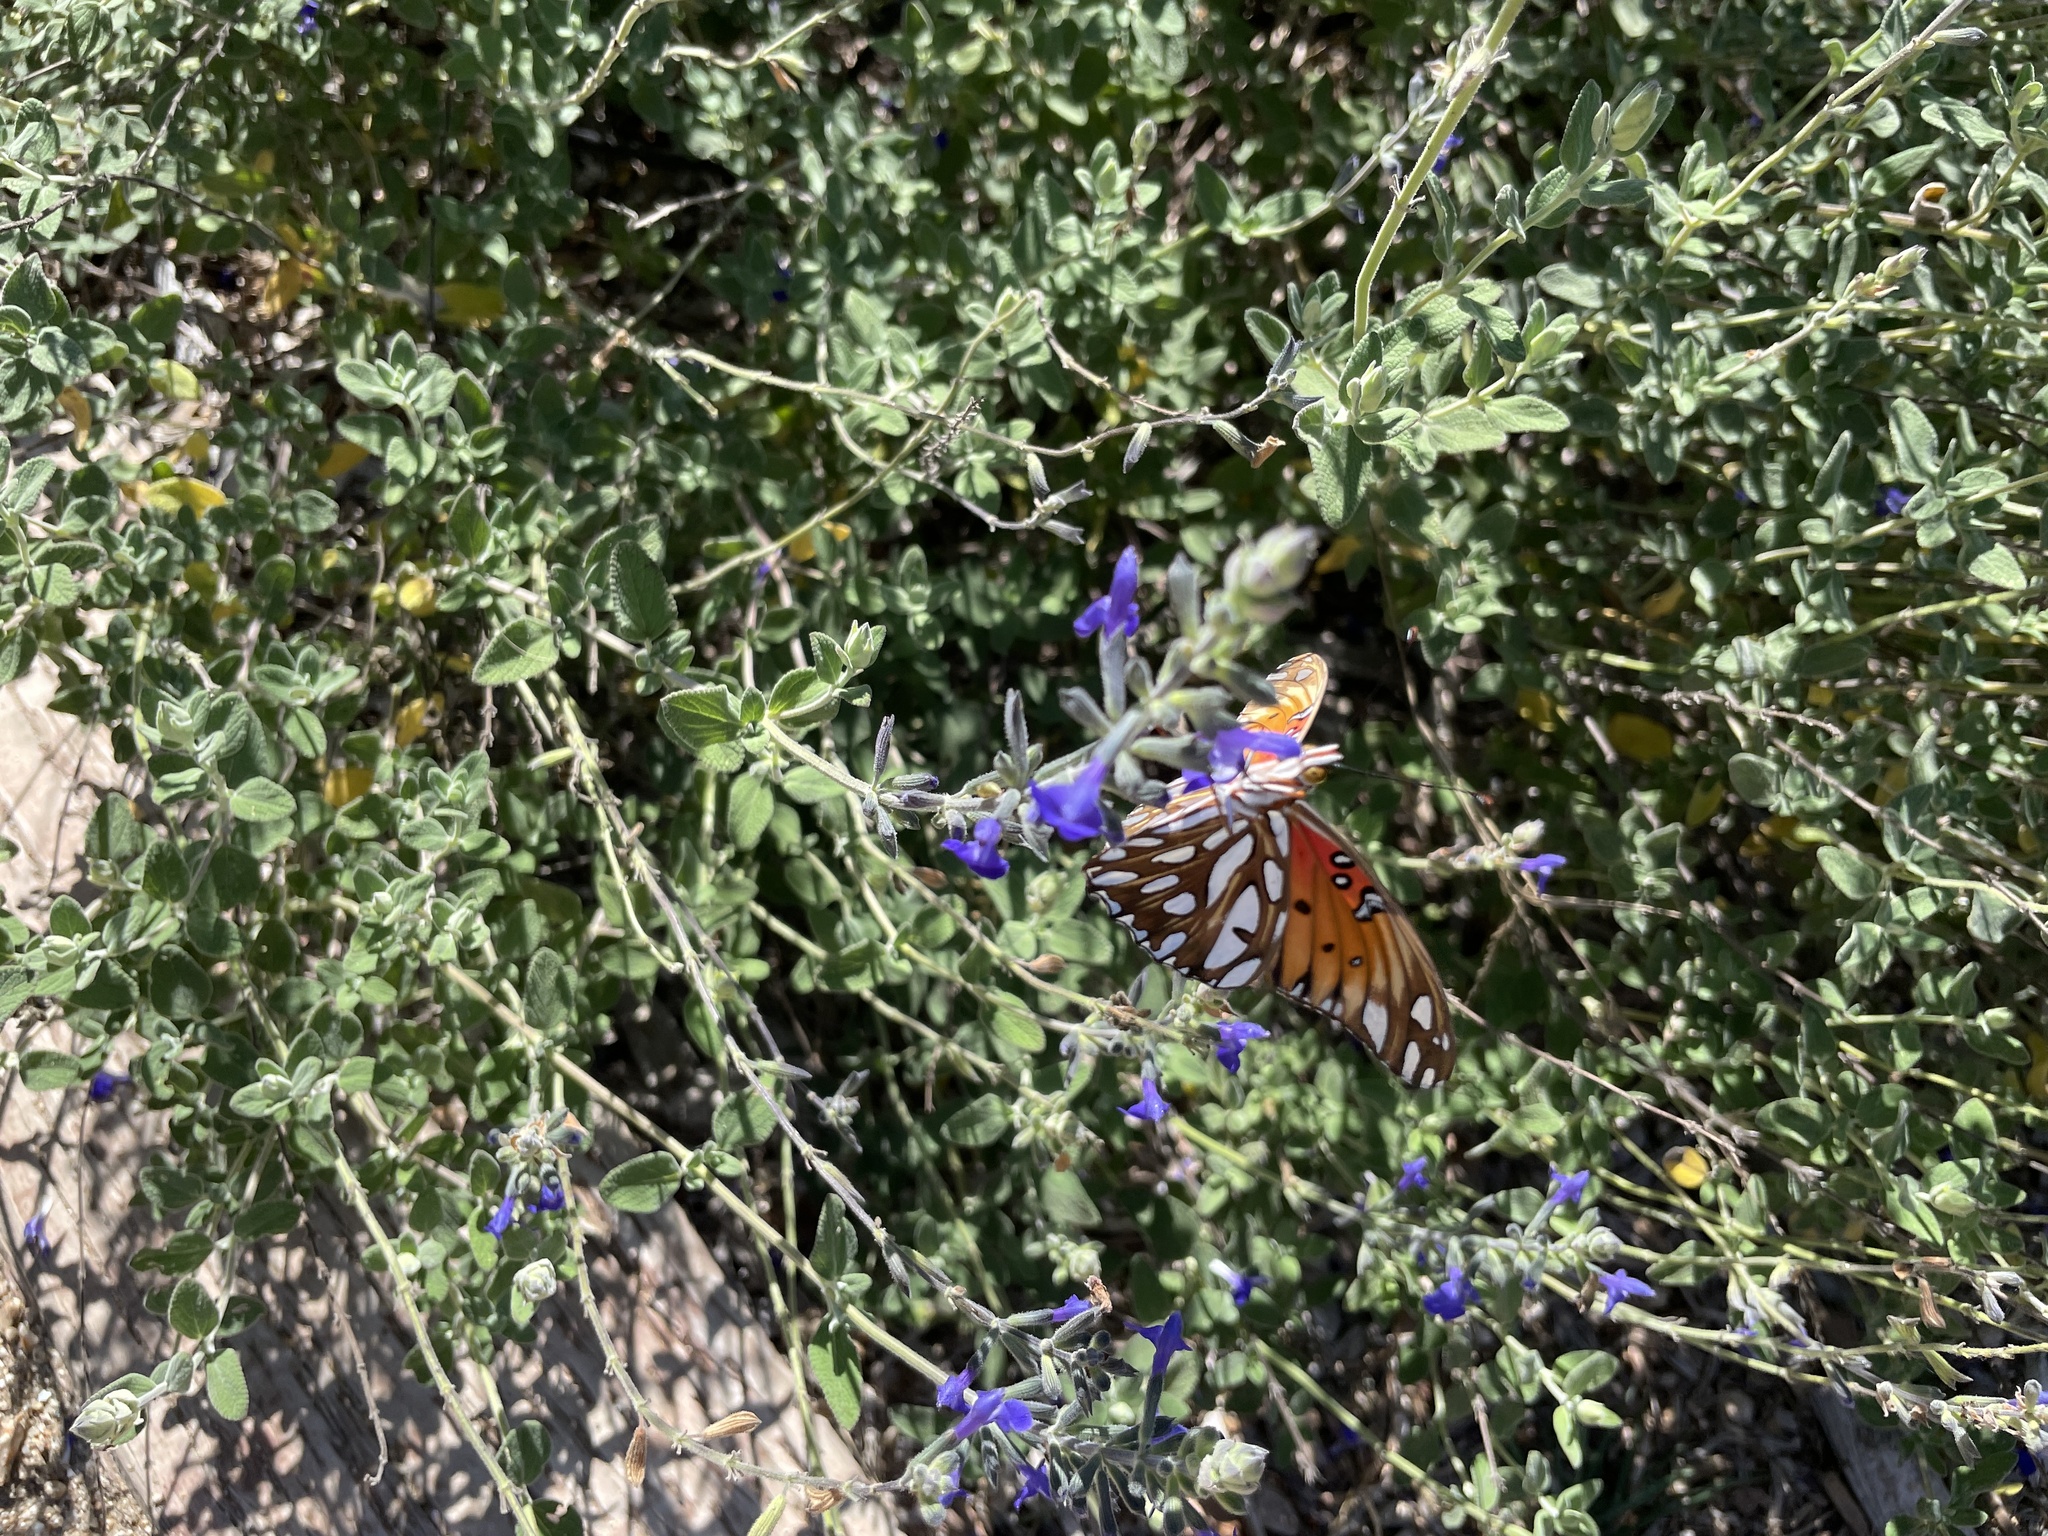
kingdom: Animalia
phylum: Arthropoda
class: Insecta
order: Lepidoptera
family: Nymphalidae
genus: Dione
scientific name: Dione vanillae
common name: Gulf fritillary
